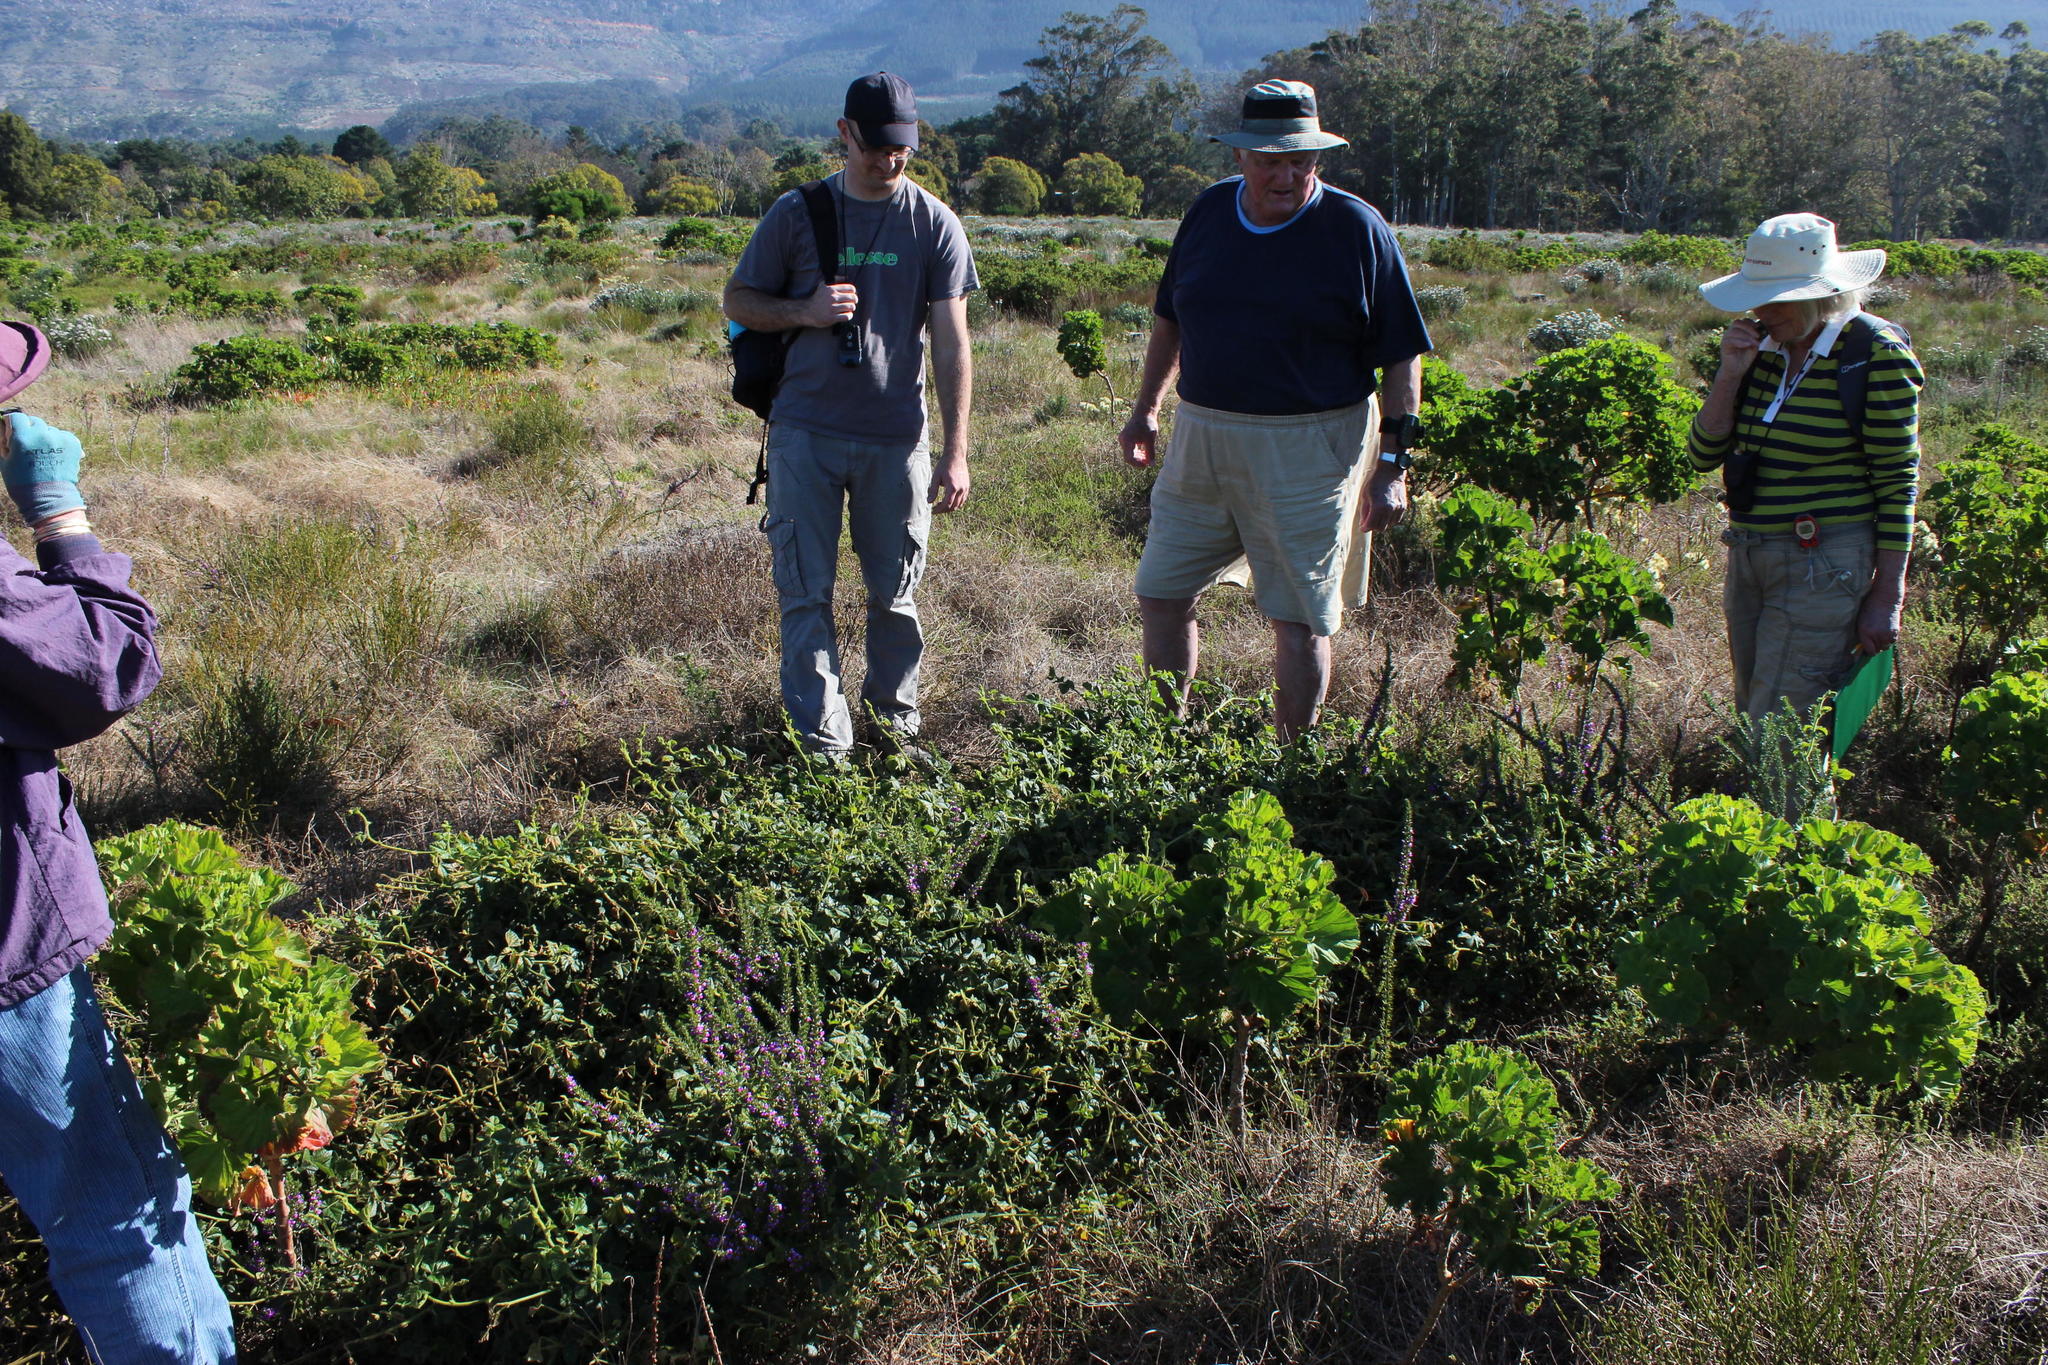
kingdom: Plantae
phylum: Tracheophyta
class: Magnoliopsida
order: Fabales
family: Fabaceae
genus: Bolusafra
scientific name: Bolusafra bituminosa
